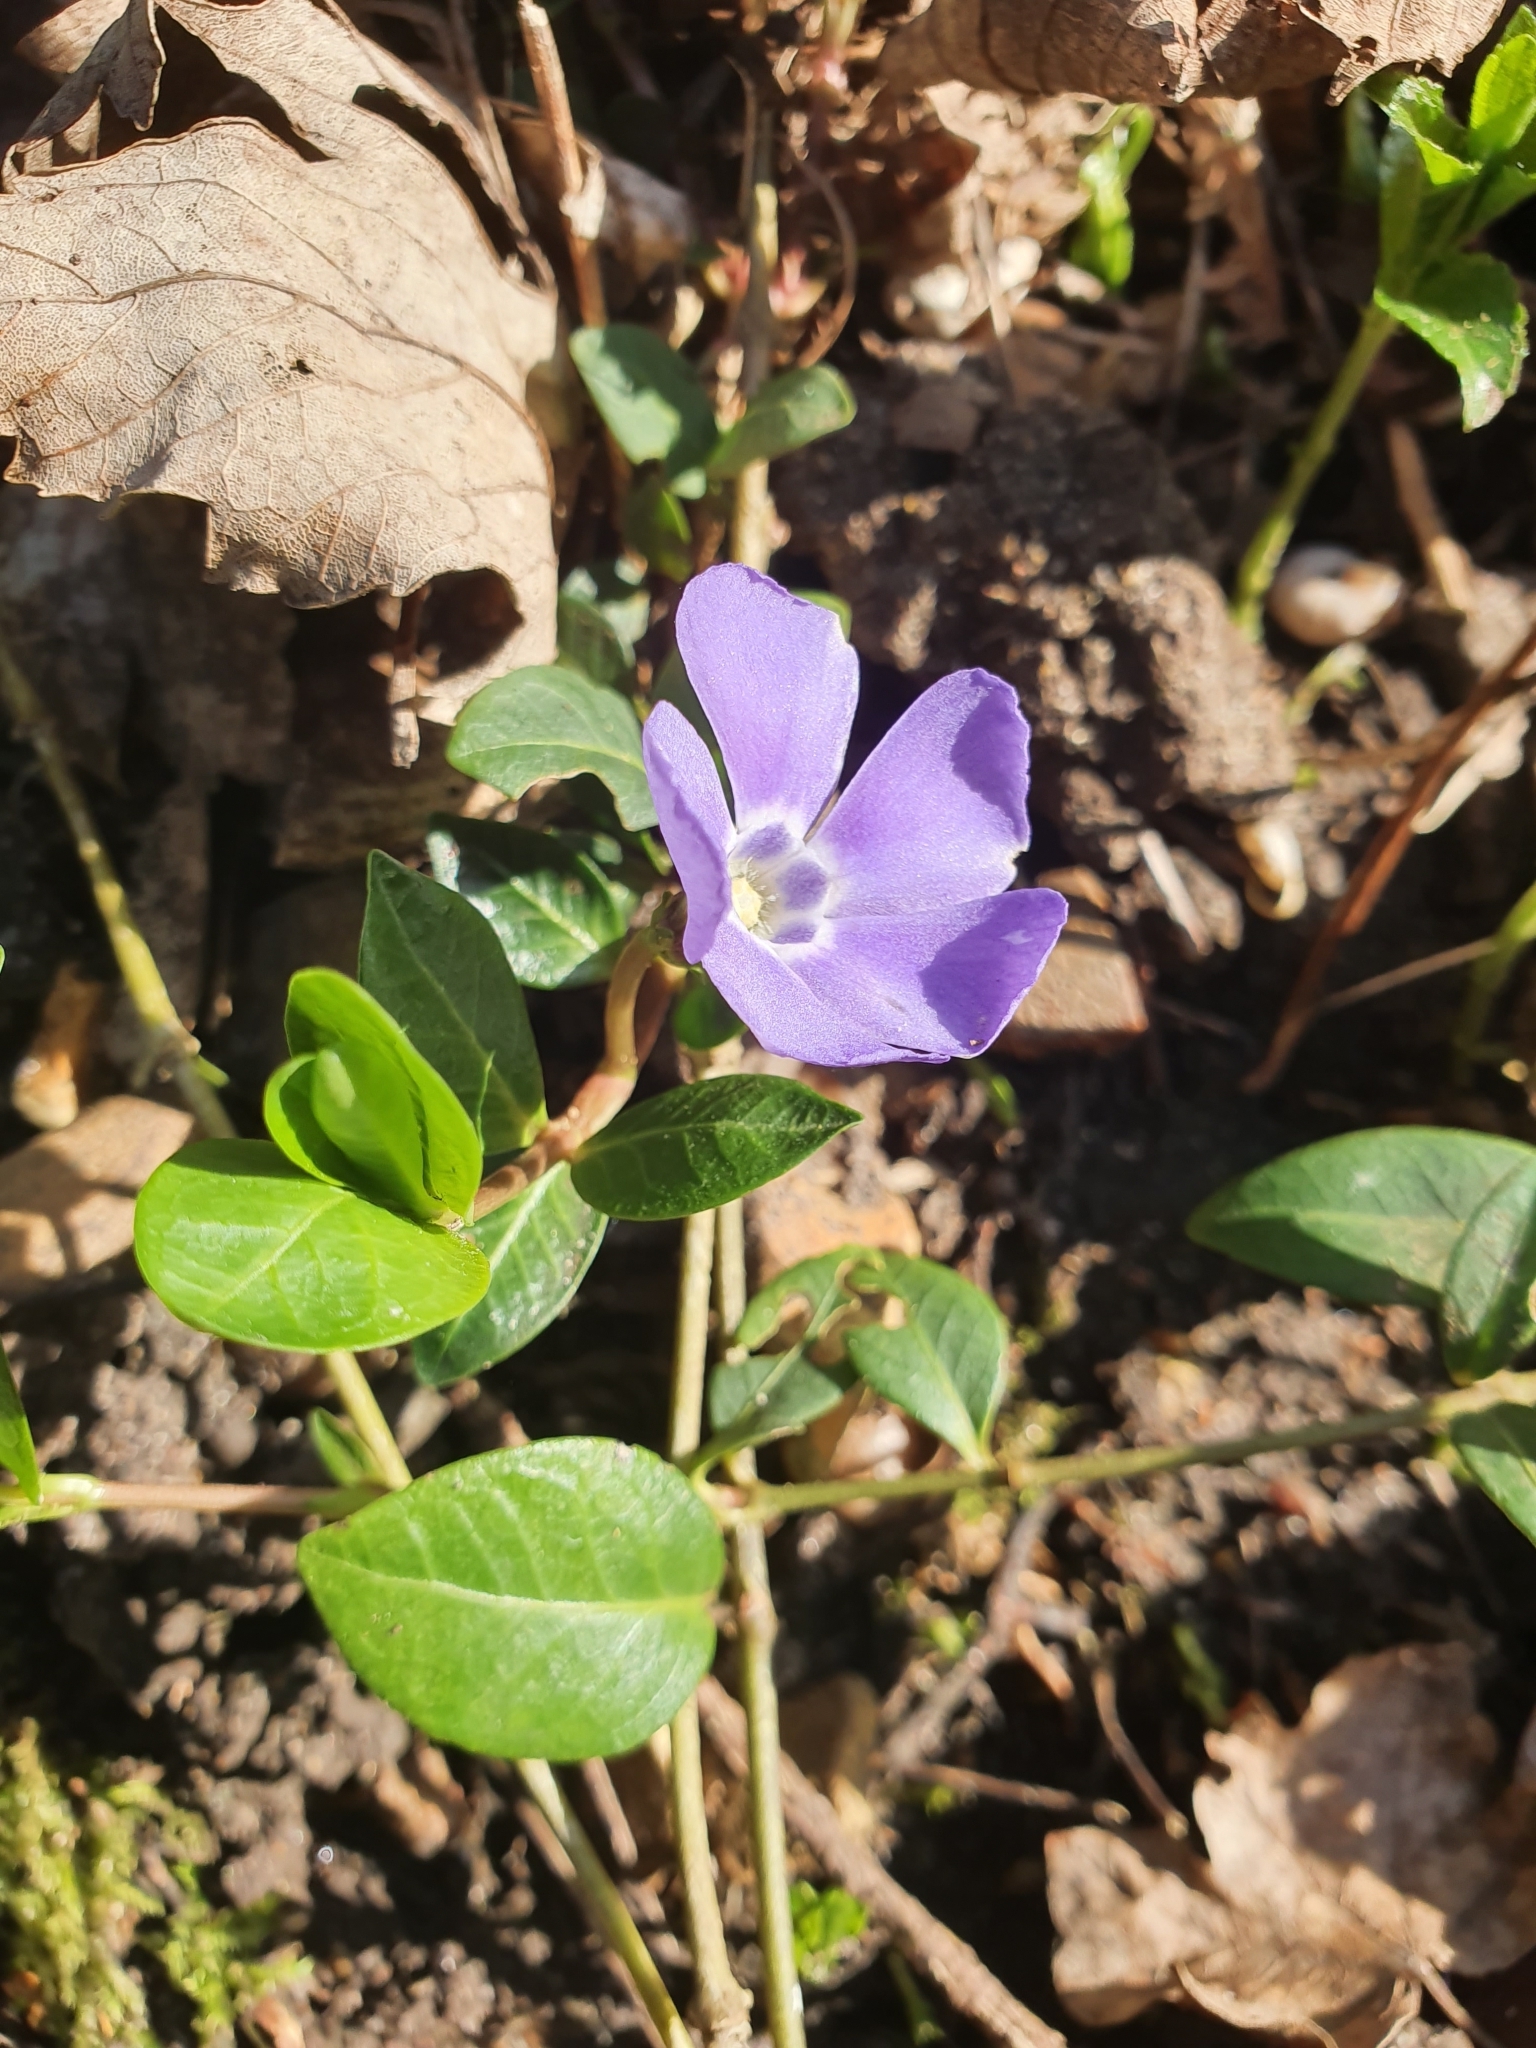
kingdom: Plantae
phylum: Tracheophyta
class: Magnoliopsida
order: Gentianales
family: Apocynaceae
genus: Vinca
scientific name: Vinca minor
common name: Lesser periwinkle
